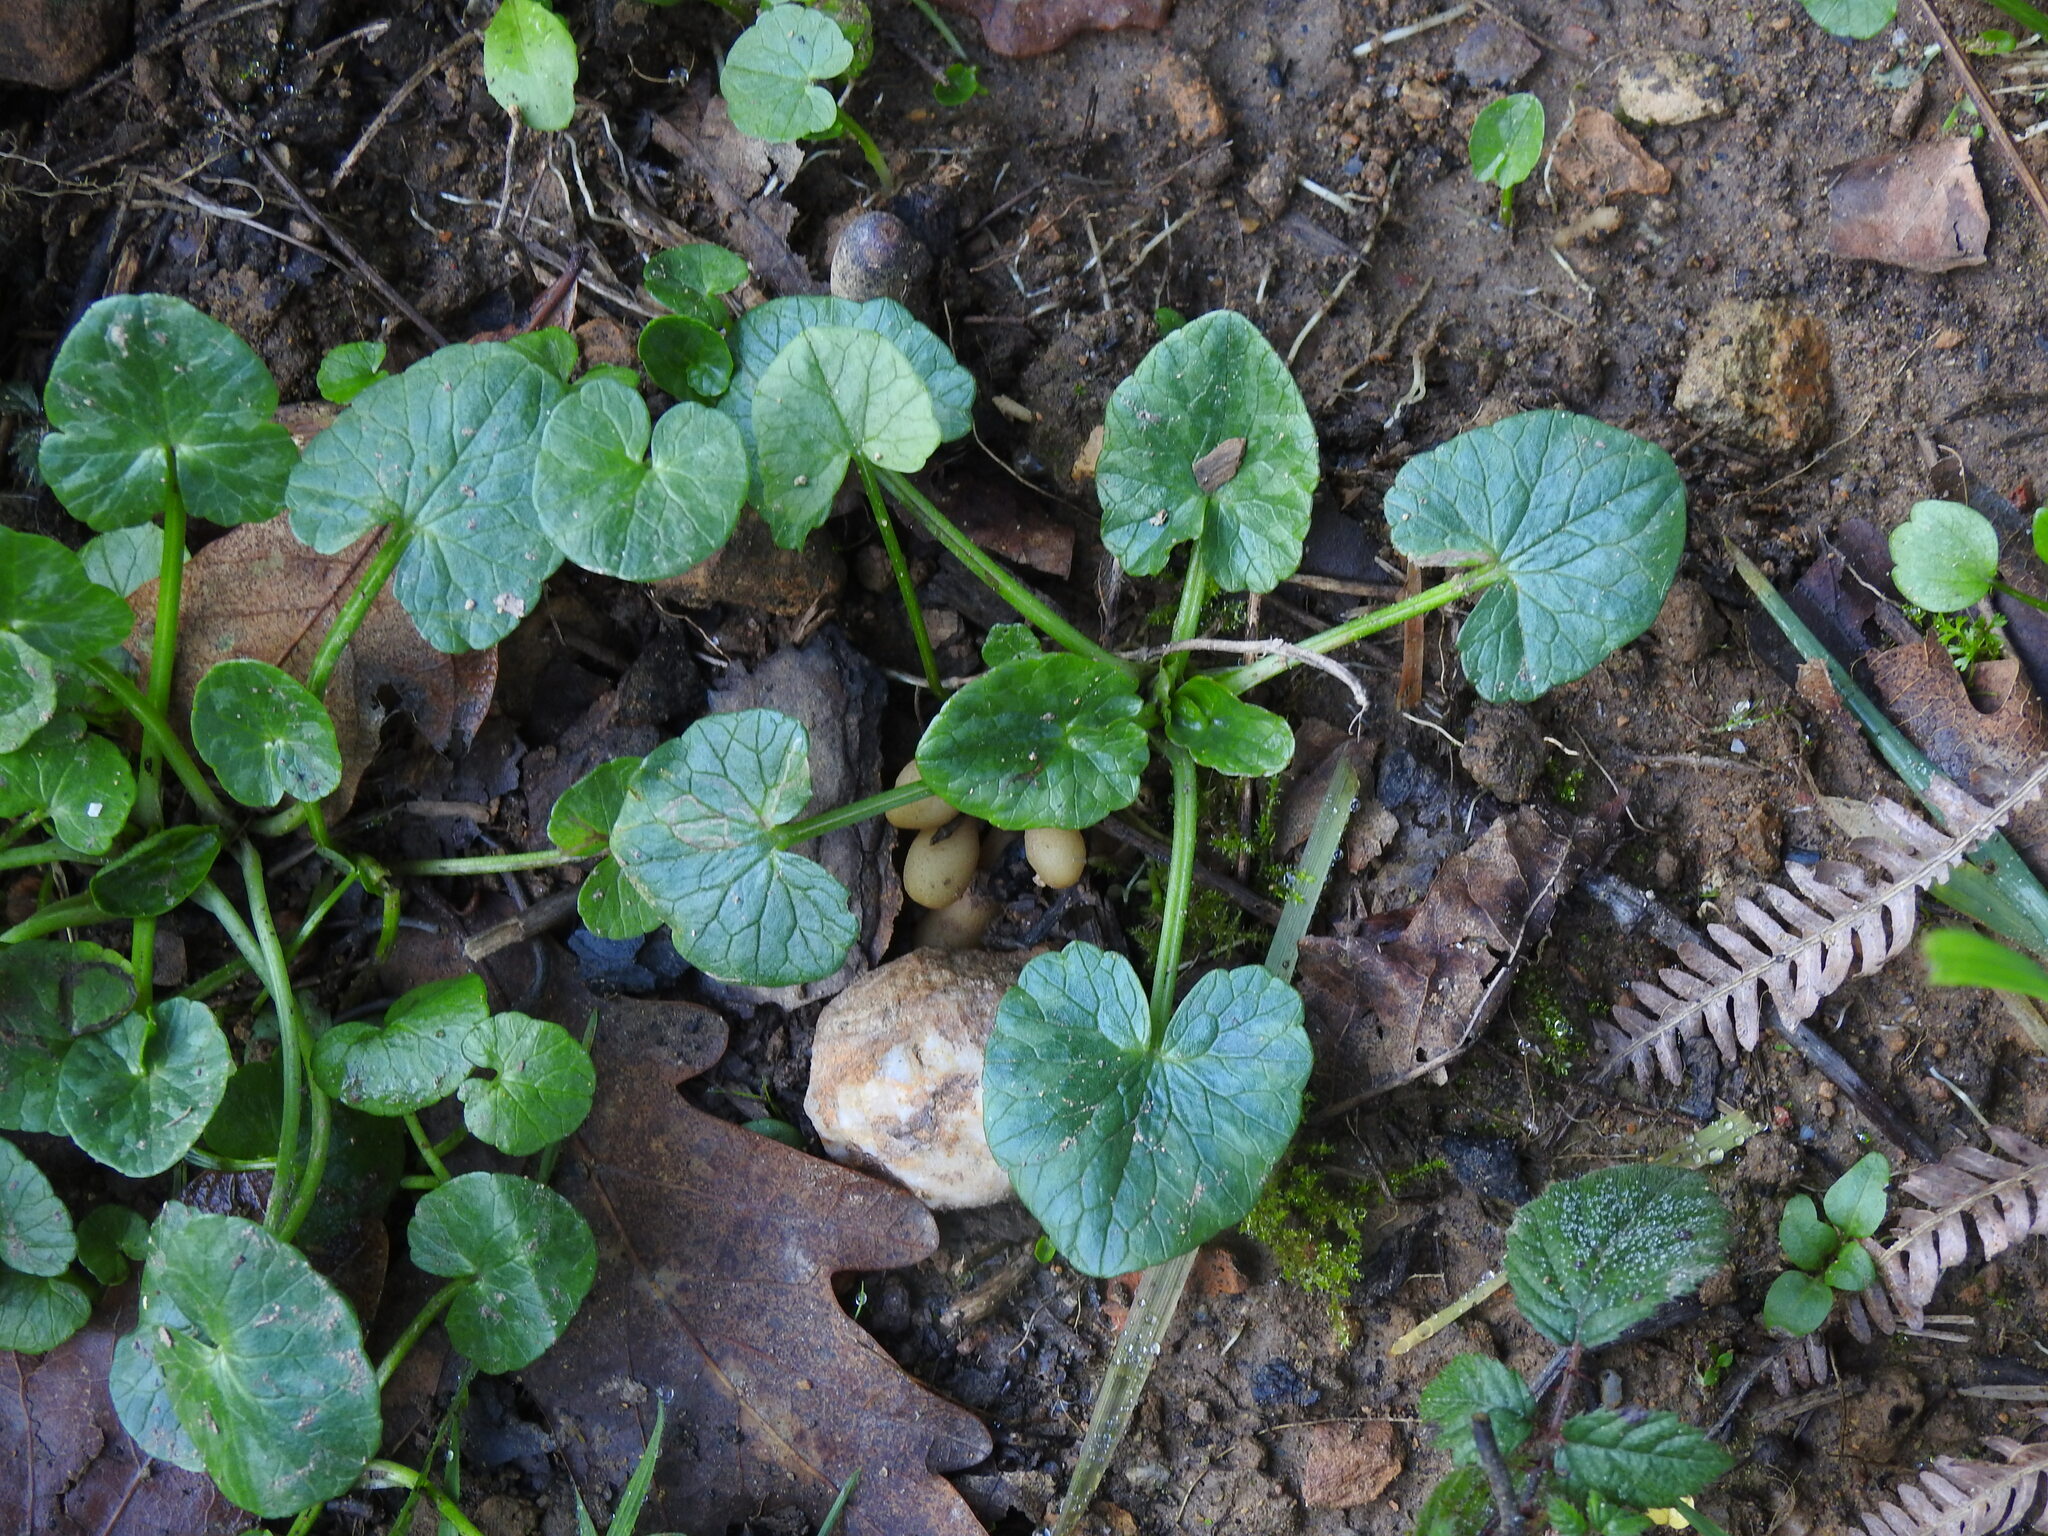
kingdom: Plantae
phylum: Tracheophyta
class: Magnoliopsida
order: Ranunculales
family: Ranunculaceae
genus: Ficaria
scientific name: Ficaria verna
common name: Lesser celandine
